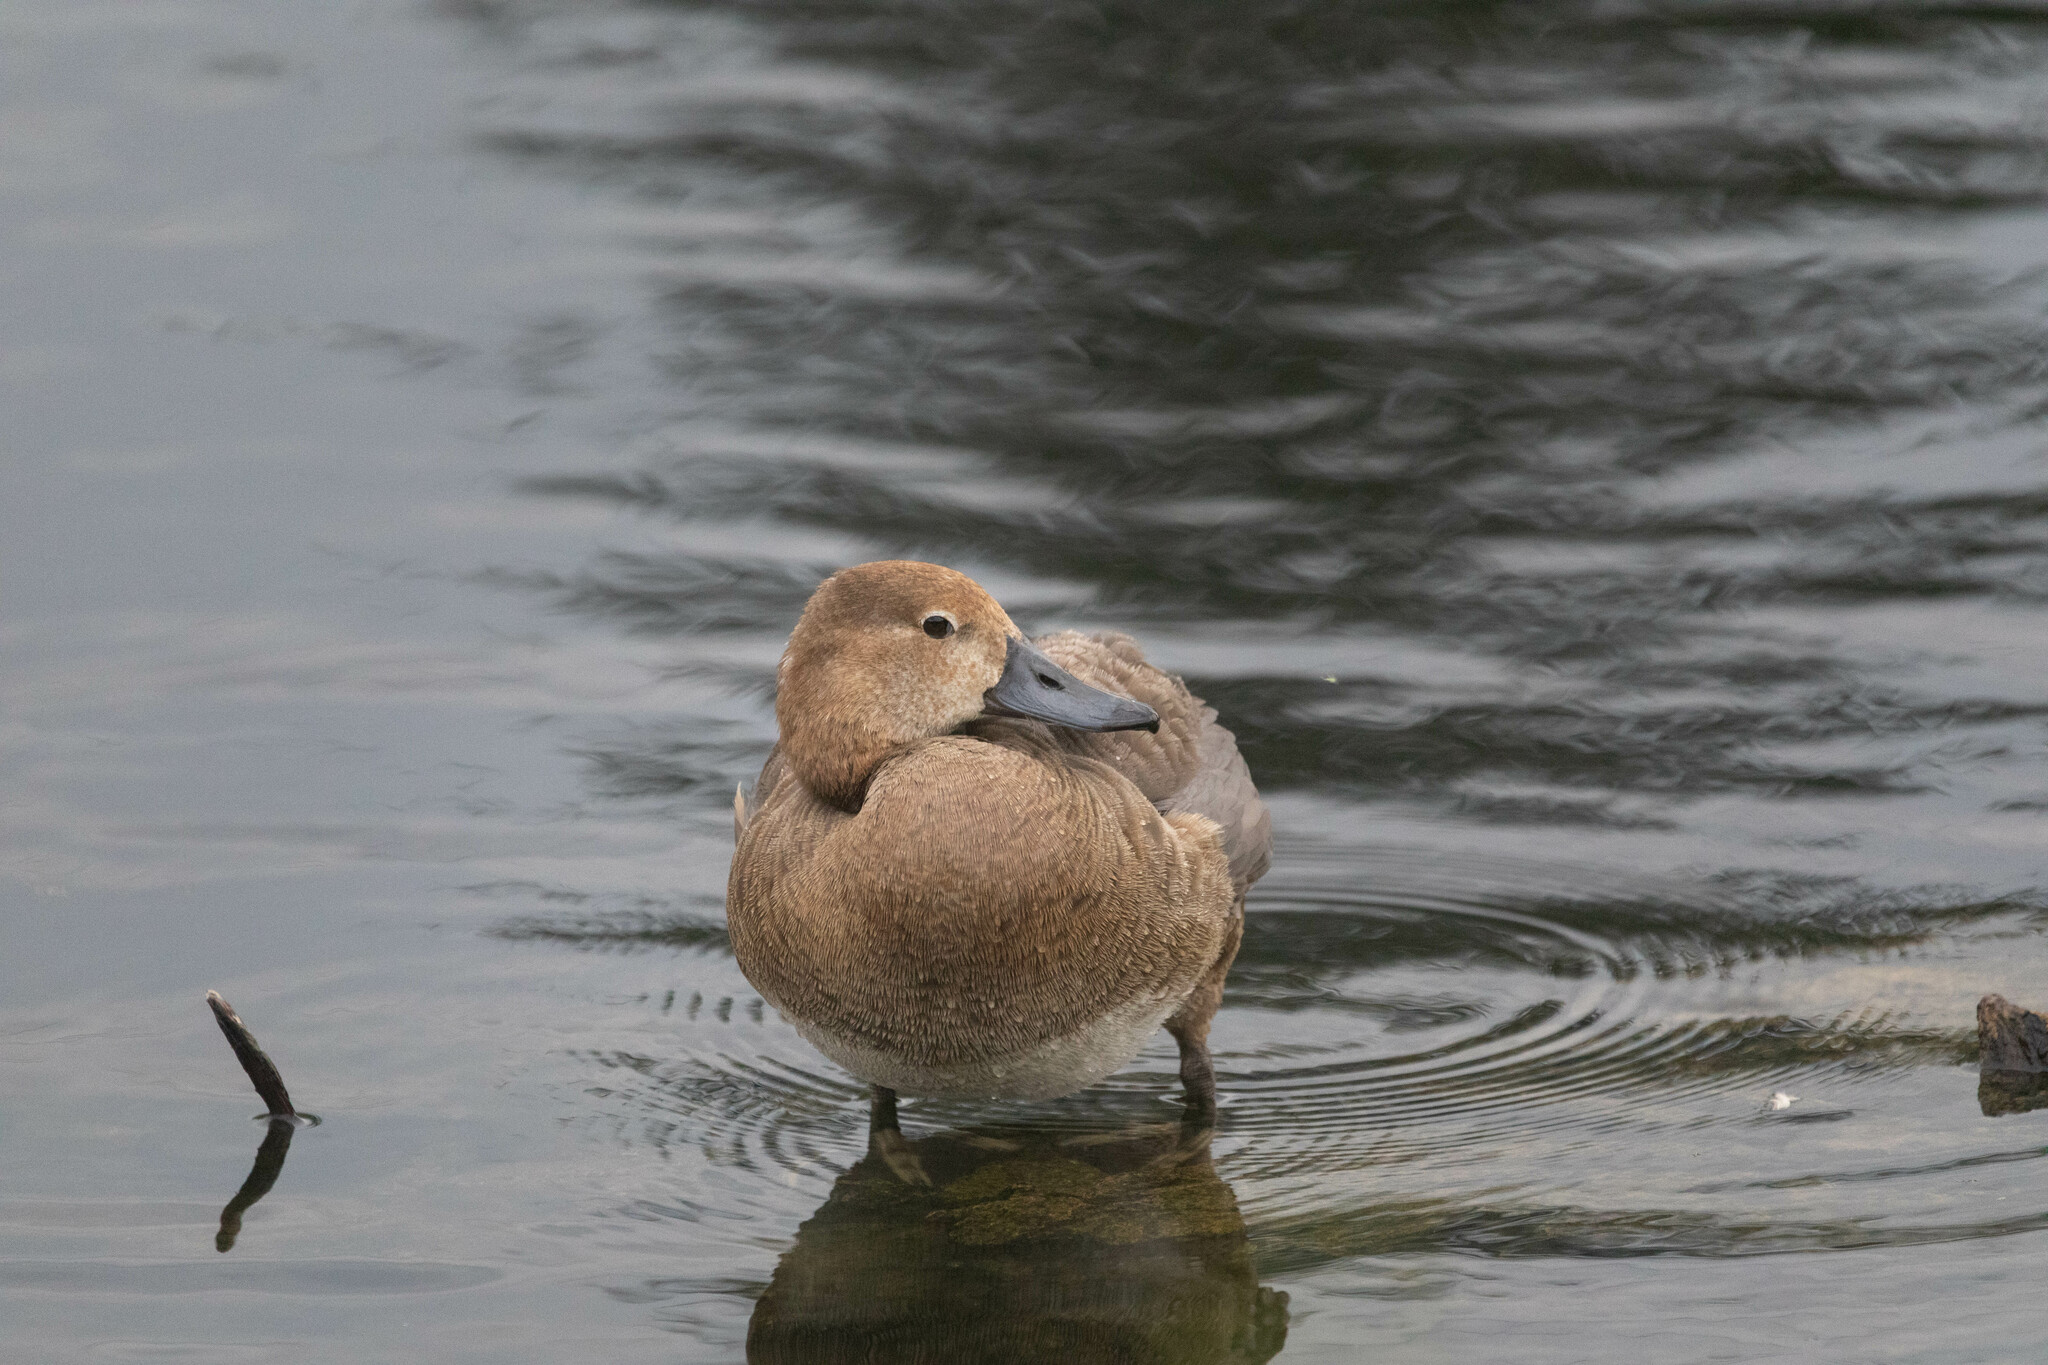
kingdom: Animalia
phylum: Chordata
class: Aves
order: Anseriformes
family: Anatidae
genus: Aythya
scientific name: Aythya americana
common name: Redhead
